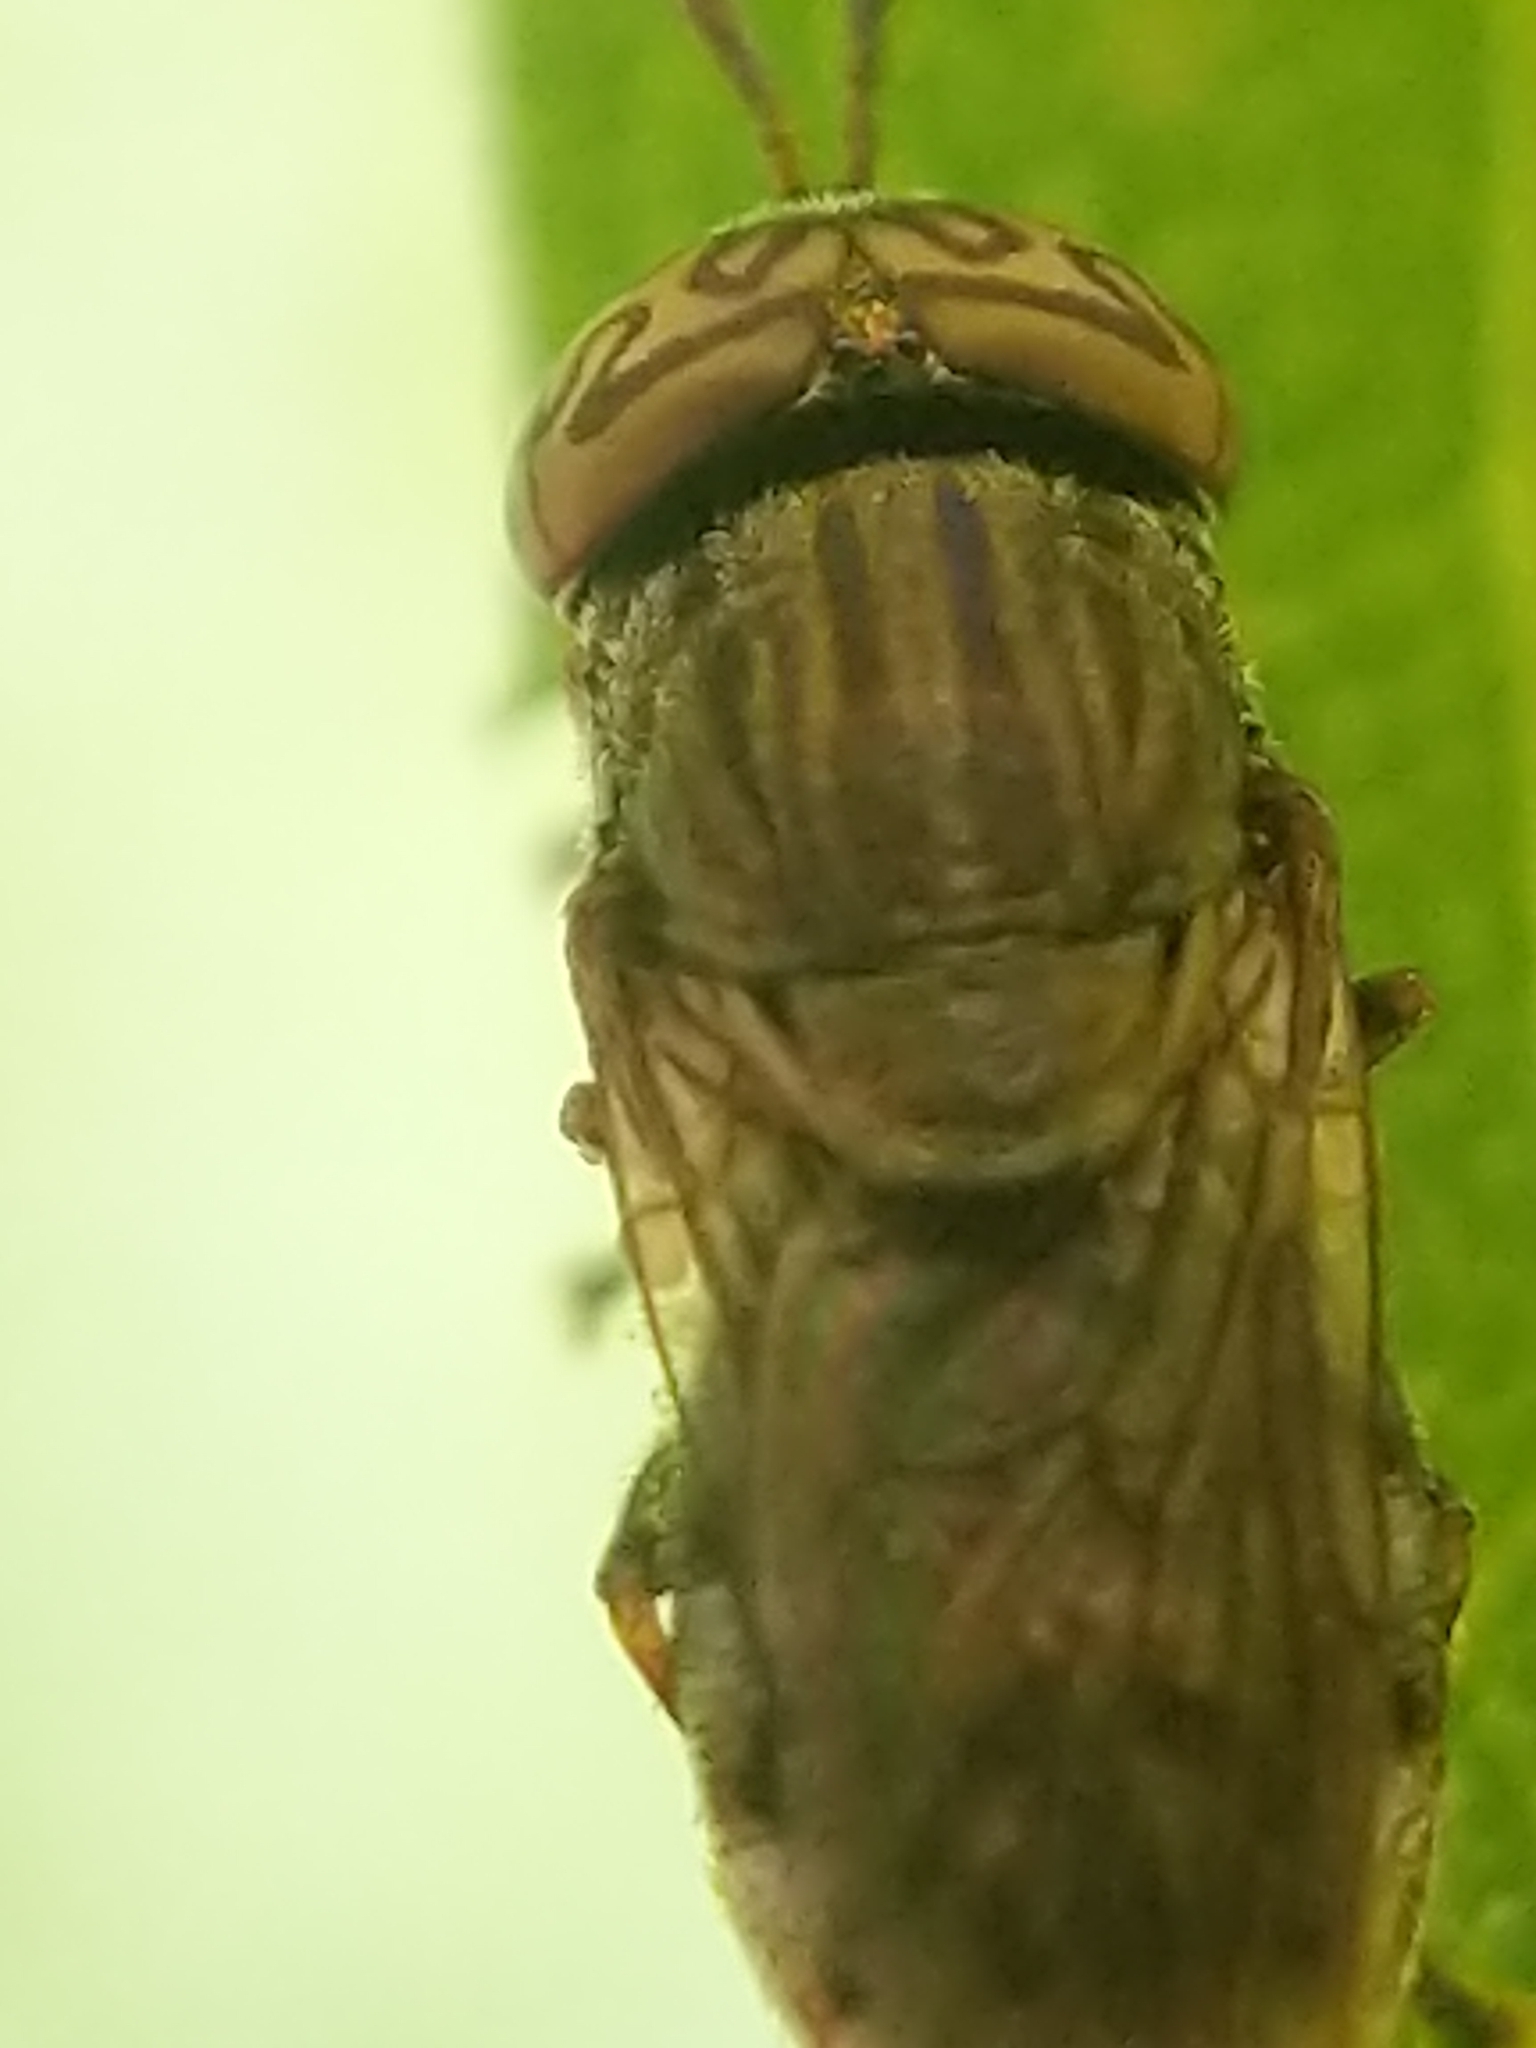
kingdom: Animalia
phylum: Arthropoda
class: Insecta
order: Diptera
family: Syrphidae
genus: Orthonevra
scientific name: Orthonevra nitida
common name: Wavy mucksucker
